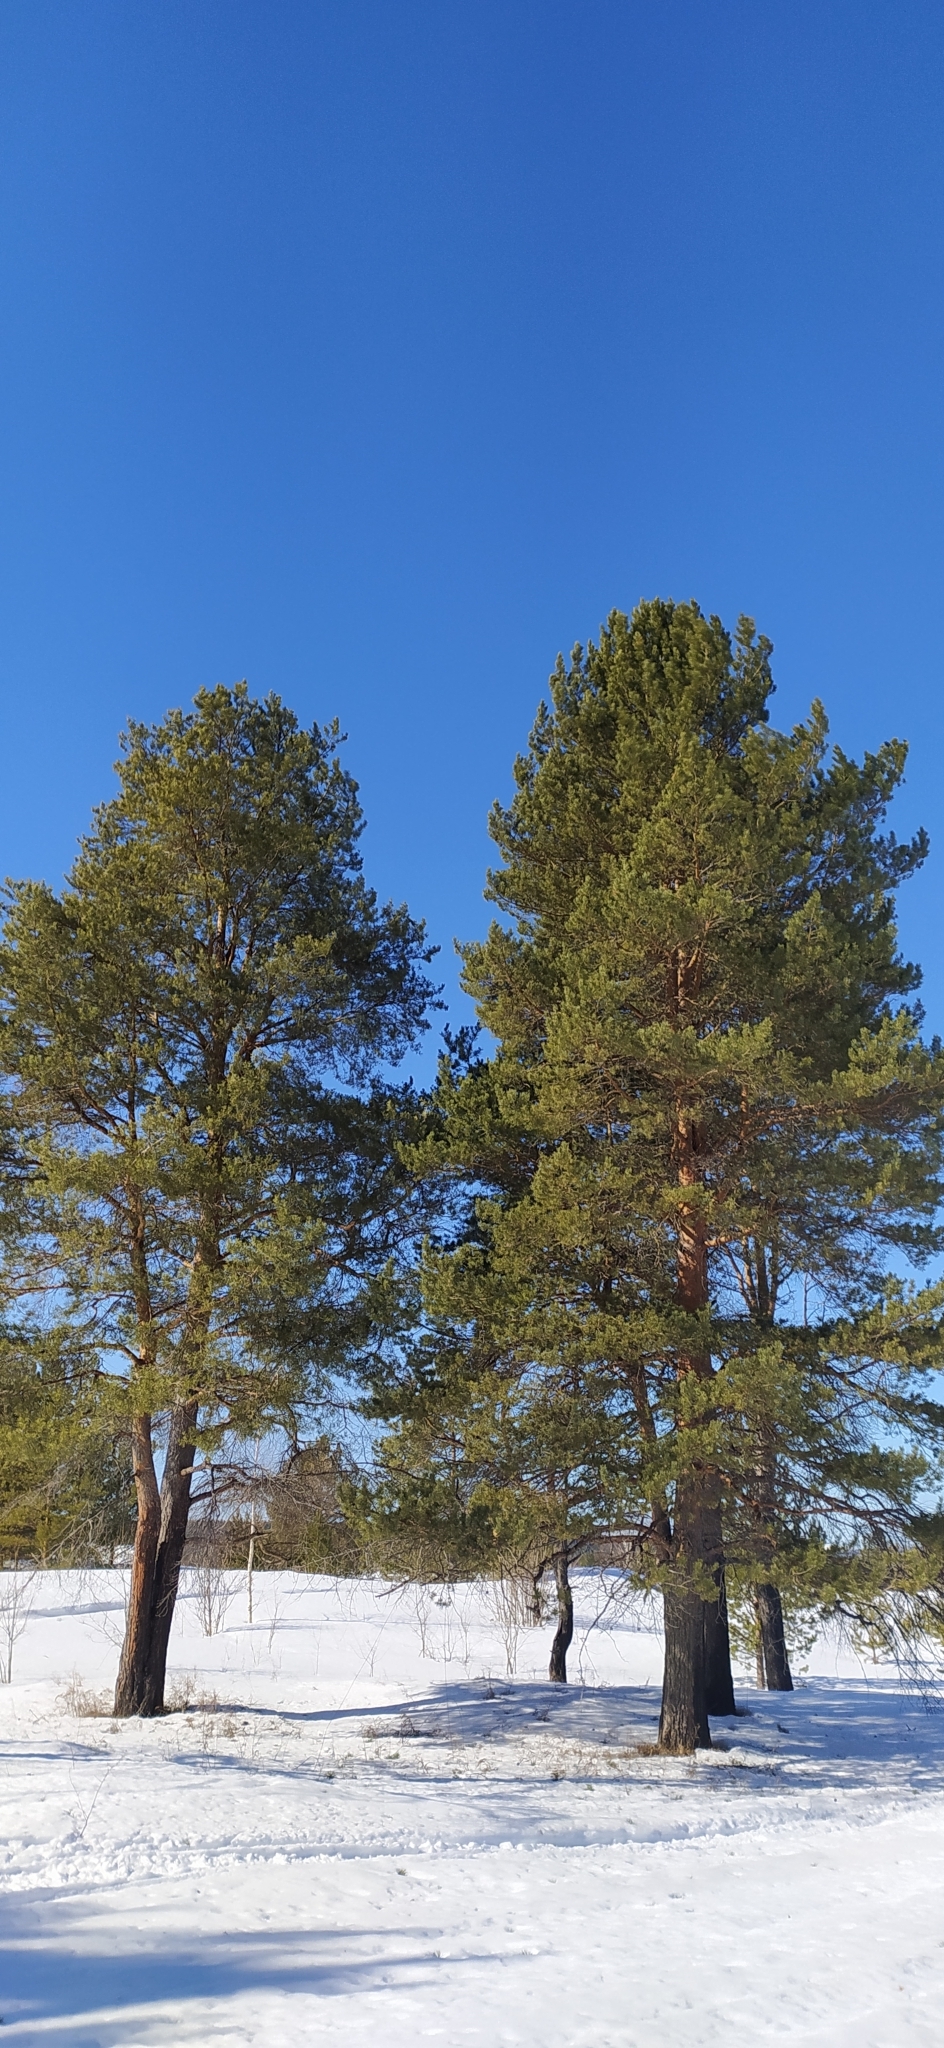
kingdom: Plantae
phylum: Tracheophyta
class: Pinopsida
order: Pinales
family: Pinaceae
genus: Pinus
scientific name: Pinus sylvestris
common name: Scots pine
